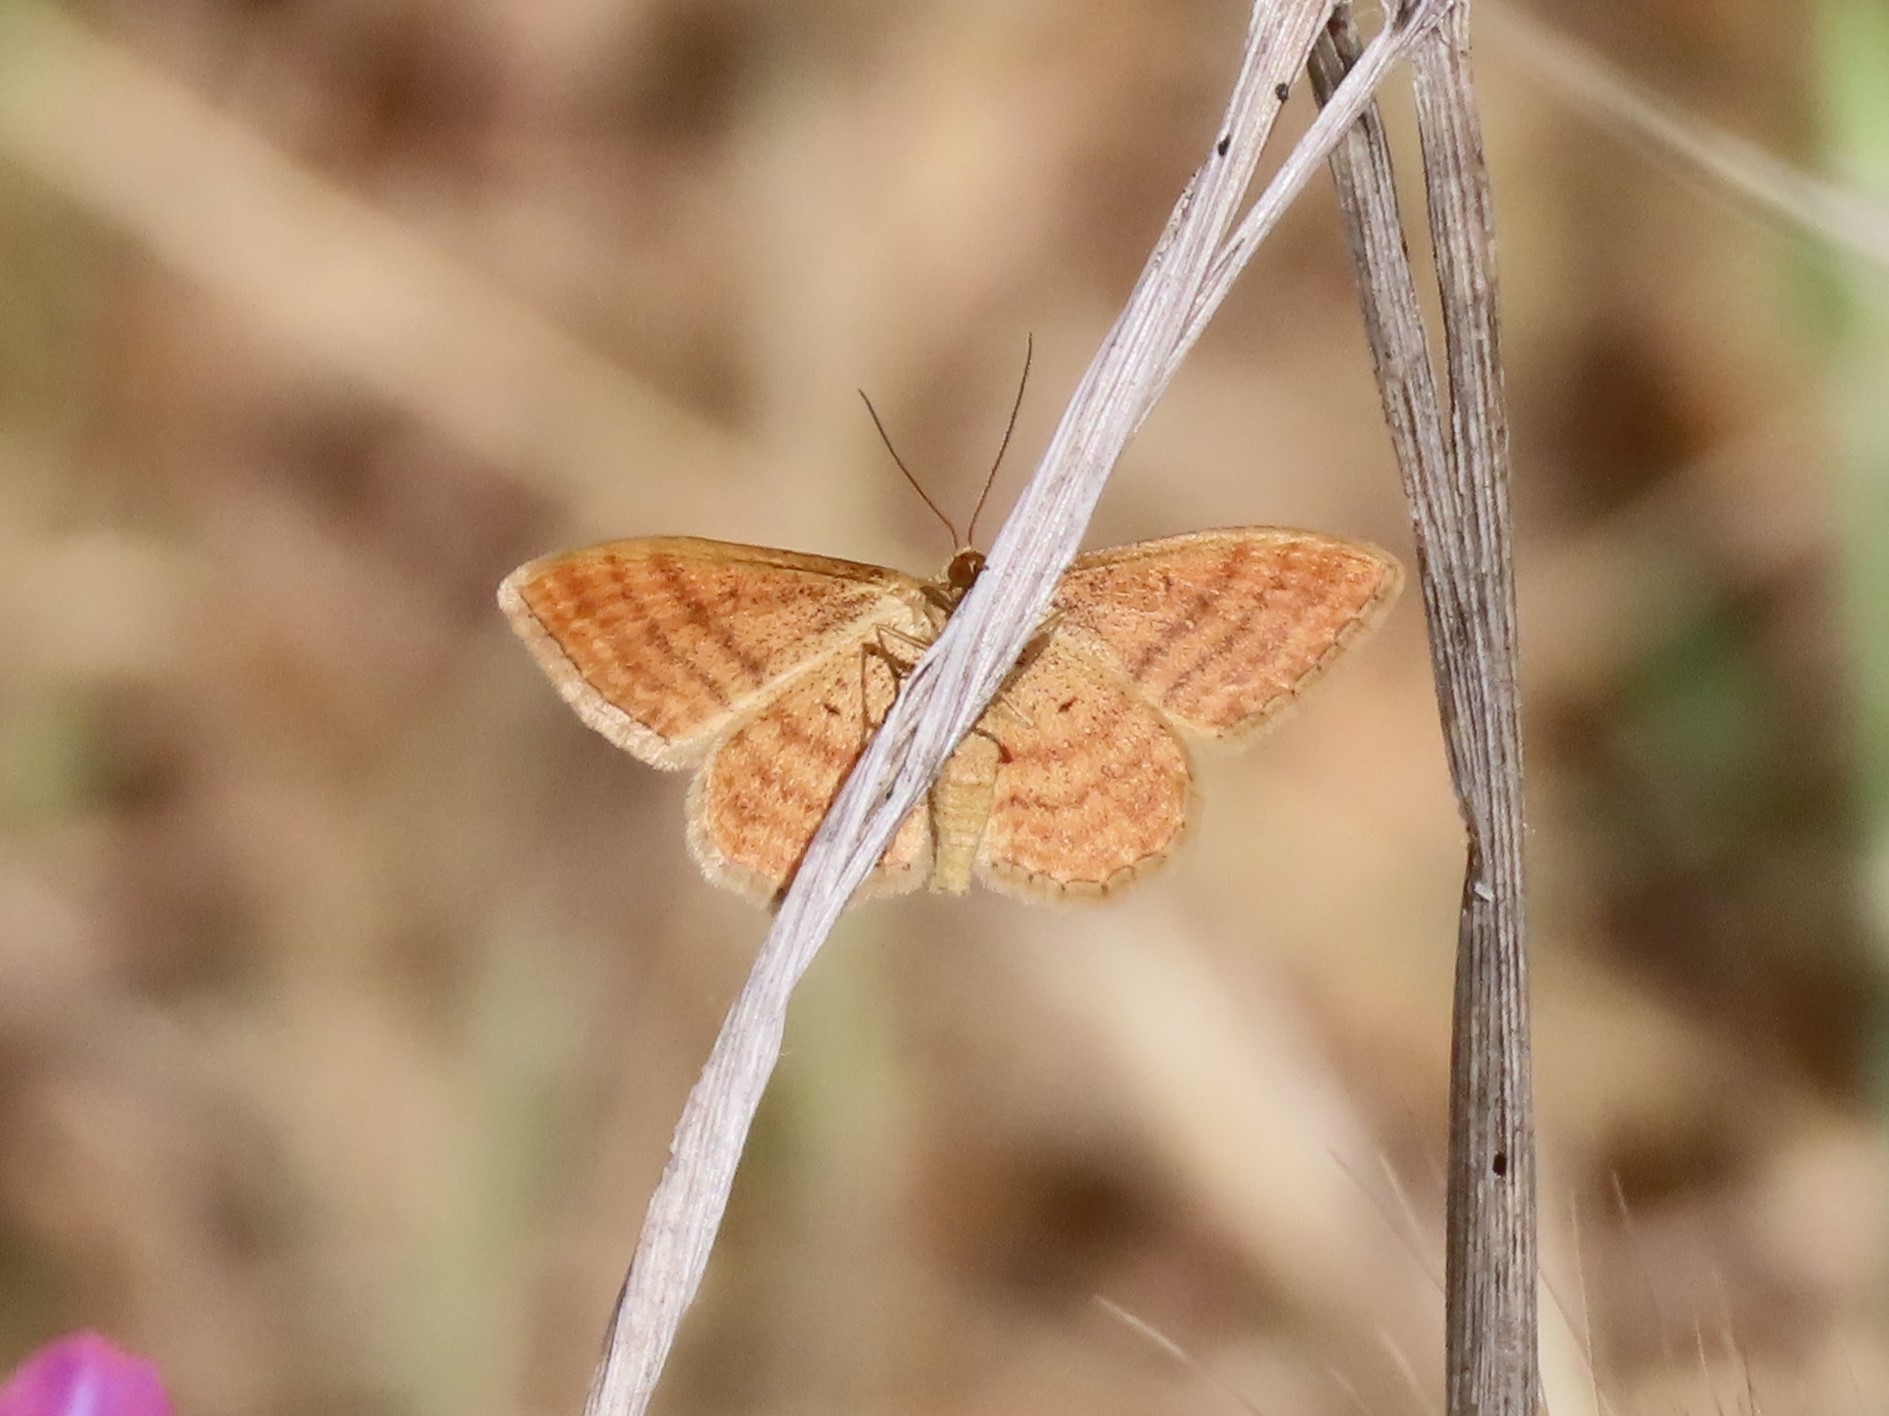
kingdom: Animalia
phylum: Arthropoda
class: Insecta
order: Lepidoptera
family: Geometridae
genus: Idaea
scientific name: Idaea ochrata
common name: Bright wave
